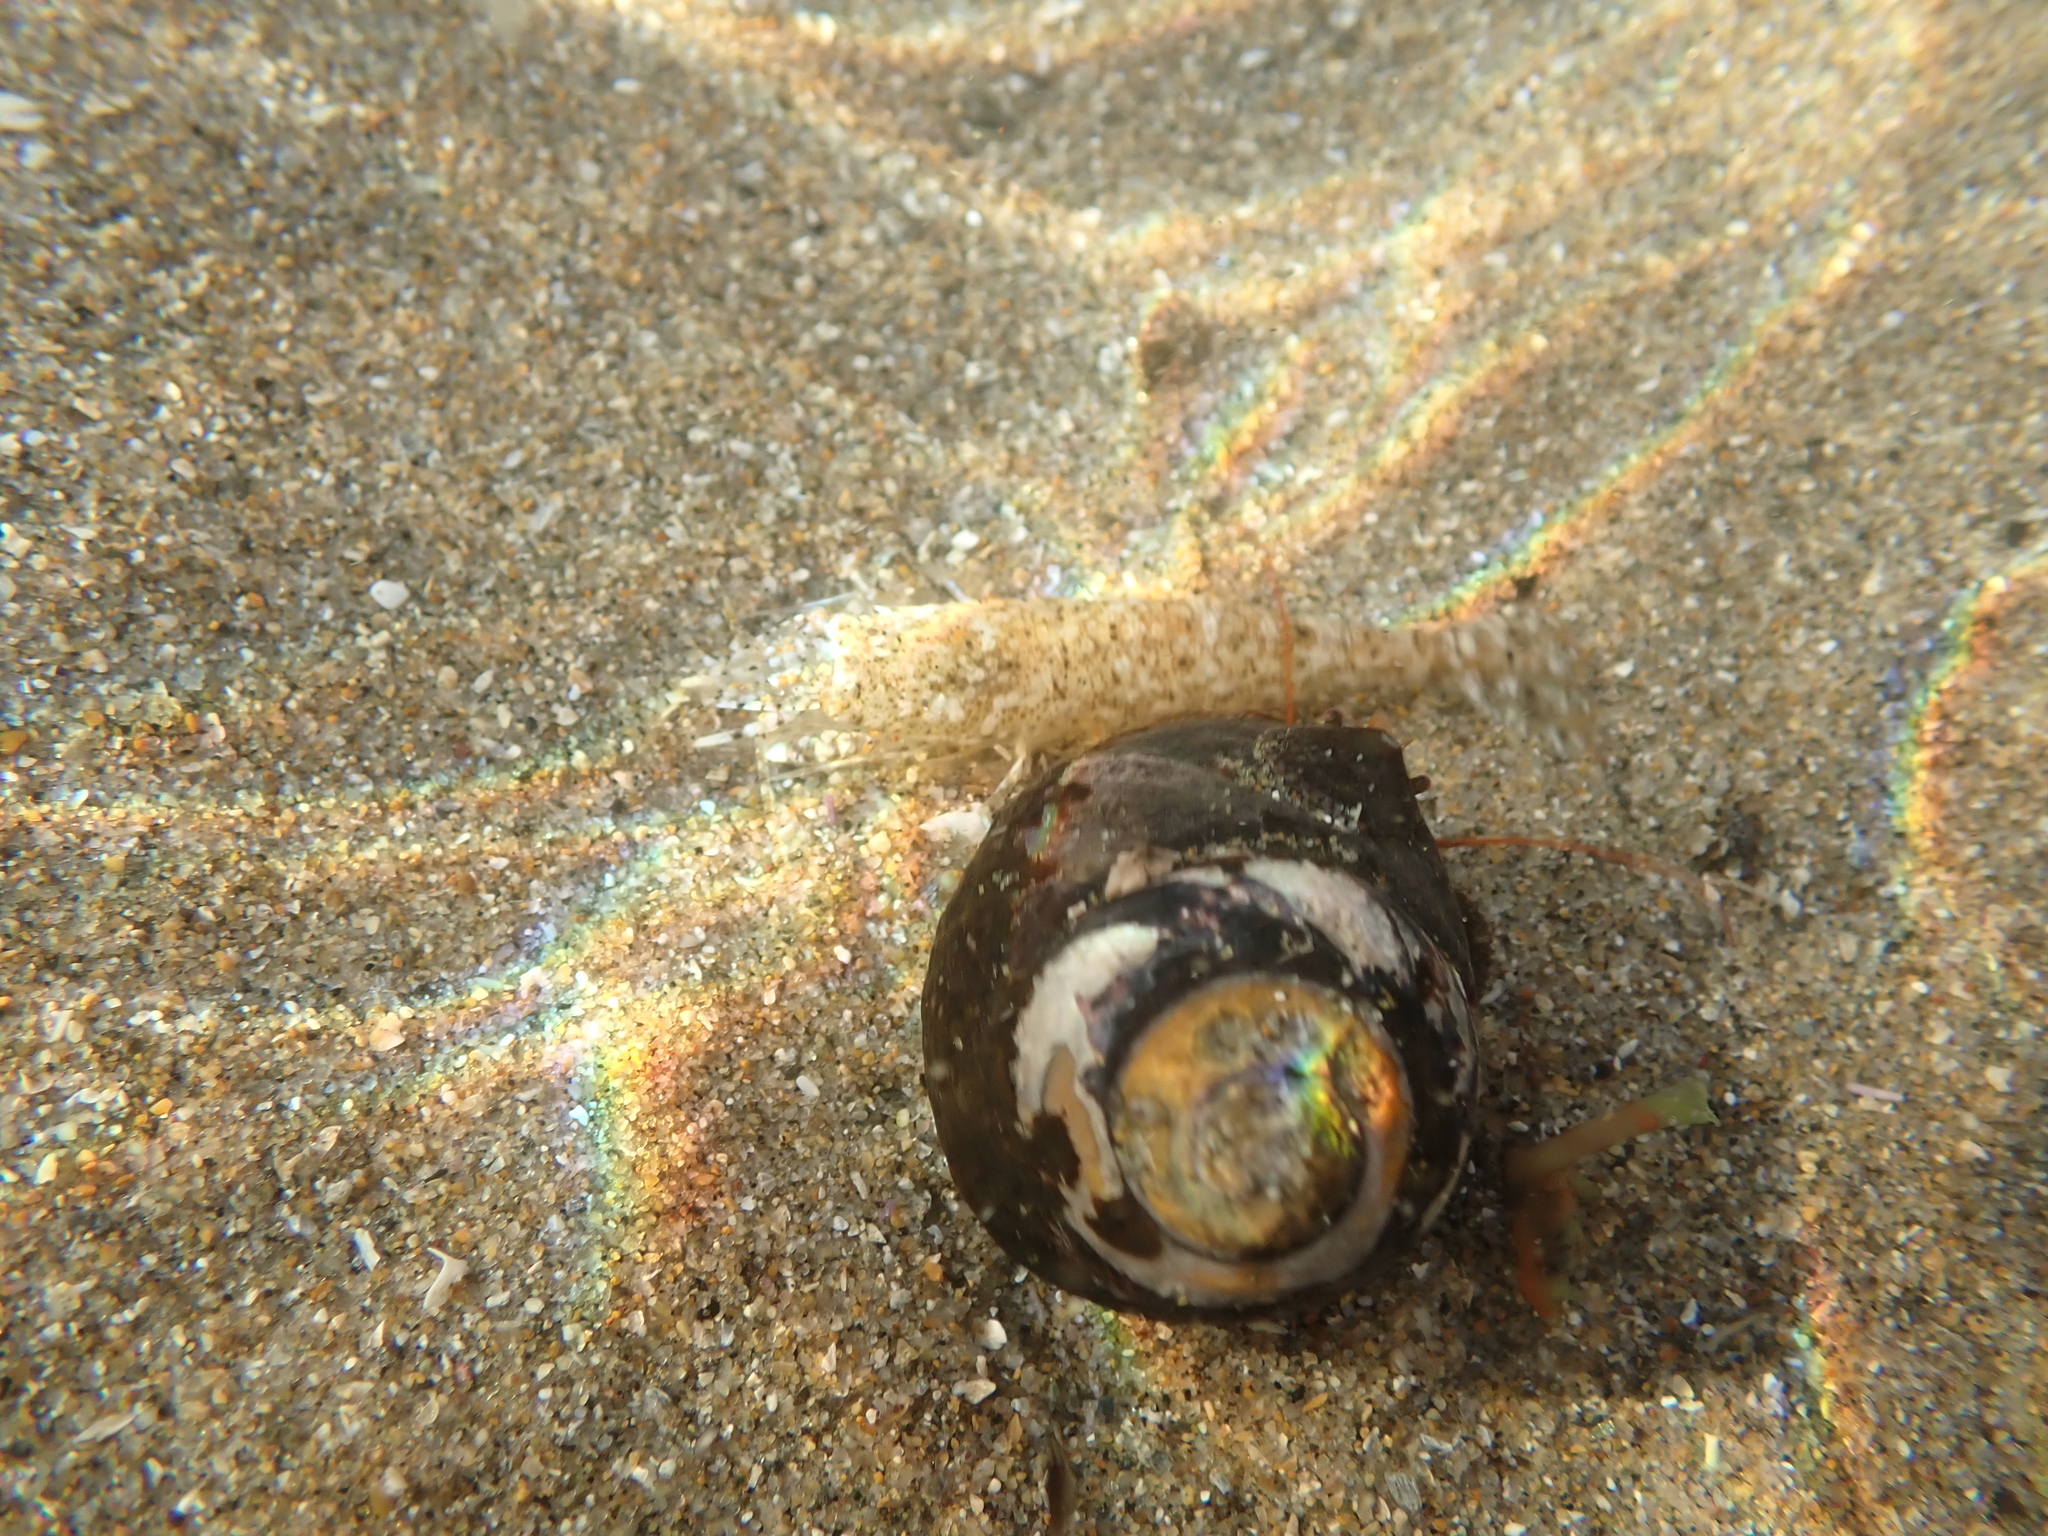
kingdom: Animalia
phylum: Arthropoda
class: Malacostraca
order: Decapoda
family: Paguridae
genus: Pagurus
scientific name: Pagurus
